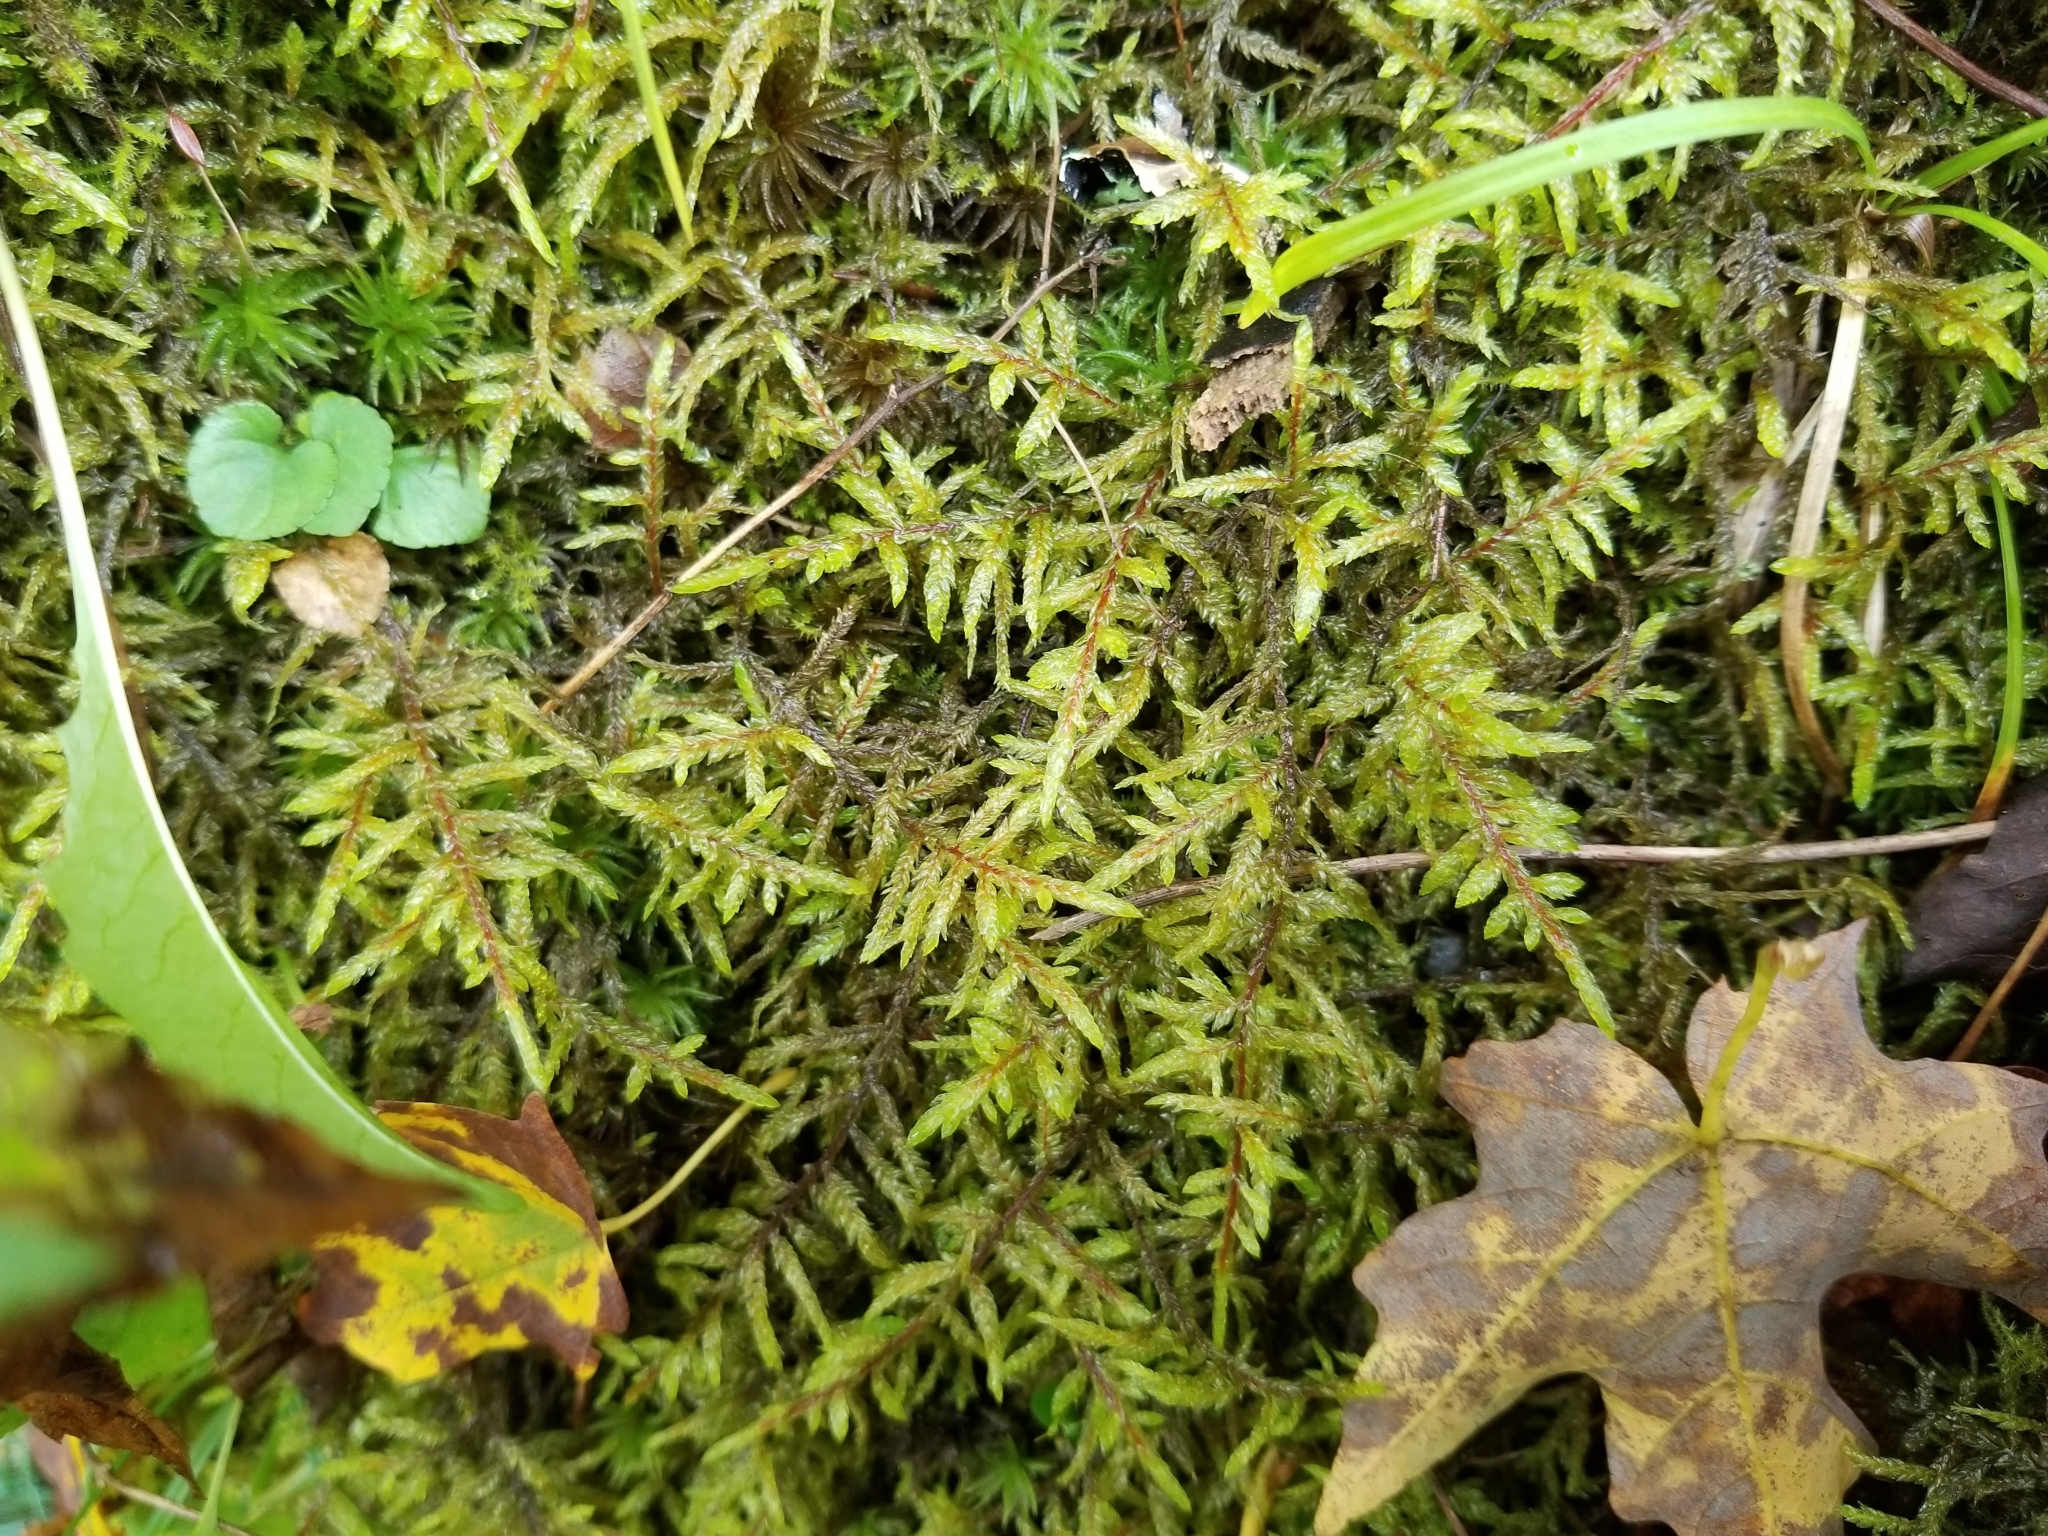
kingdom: Plantae
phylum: Bryophyta
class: Bryopsida
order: Hypnales
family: Hylocomiaceae
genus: Pleurozium
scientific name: Pleurozium schreberi
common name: Red-stemmed feather moss
